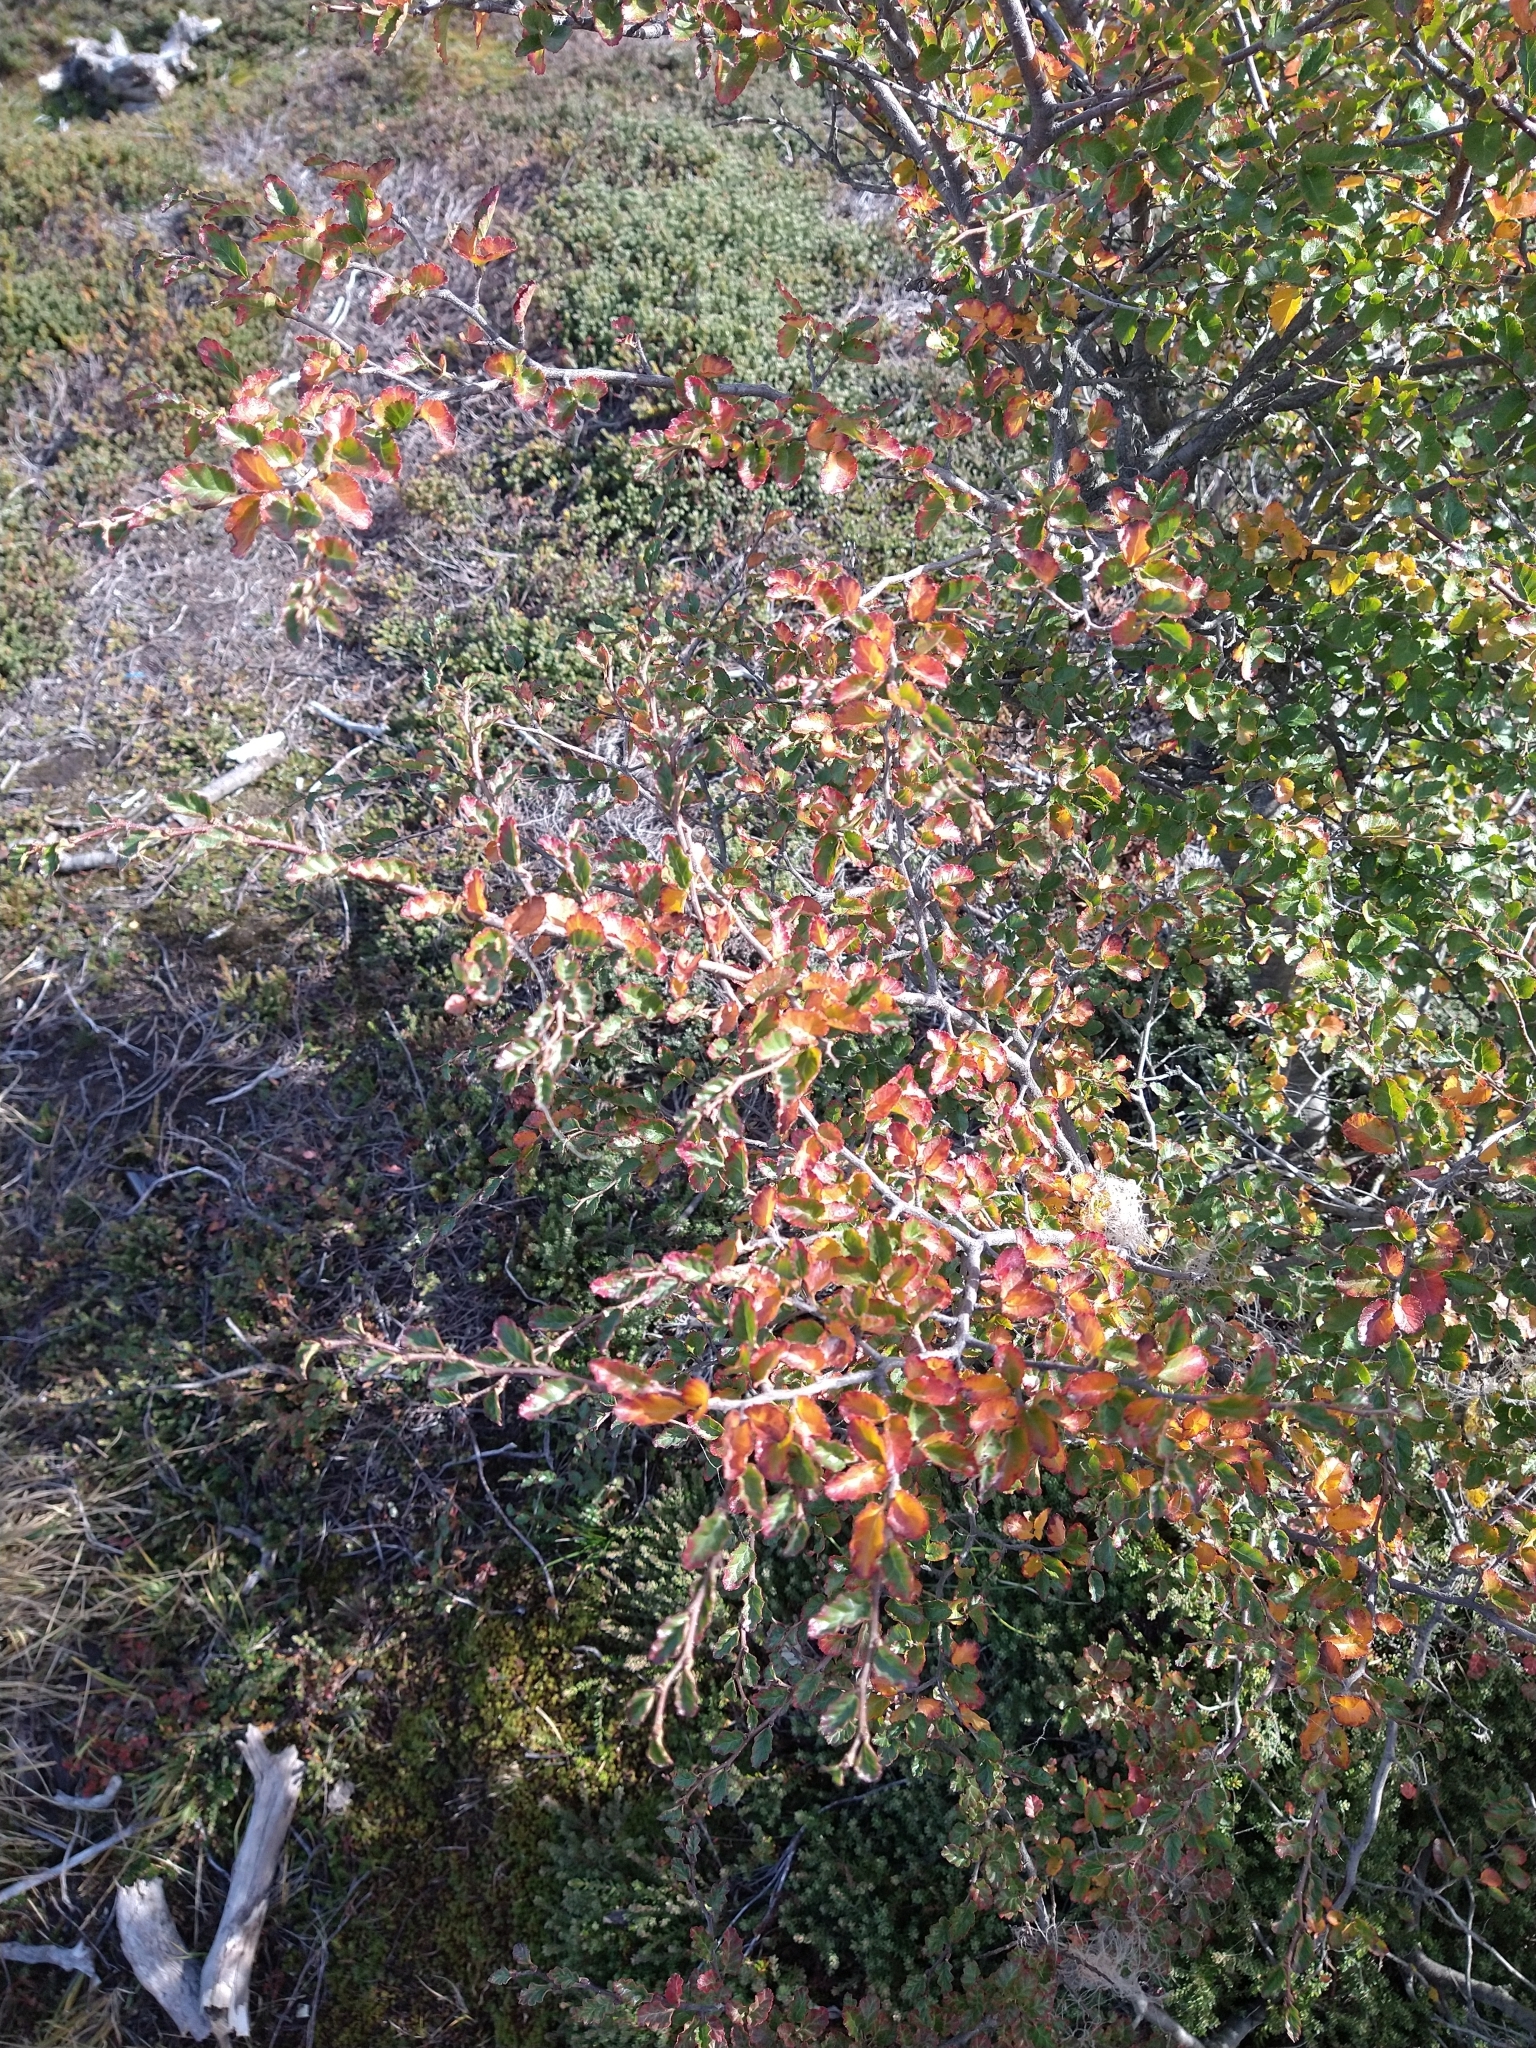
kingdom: Plantae
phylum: Tracheophyta
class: Magnoliopsida
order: Fagales
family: Nothofagaceae
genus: Nothofagus
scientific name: Nothofagus antarctica
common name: Antarctic beech
